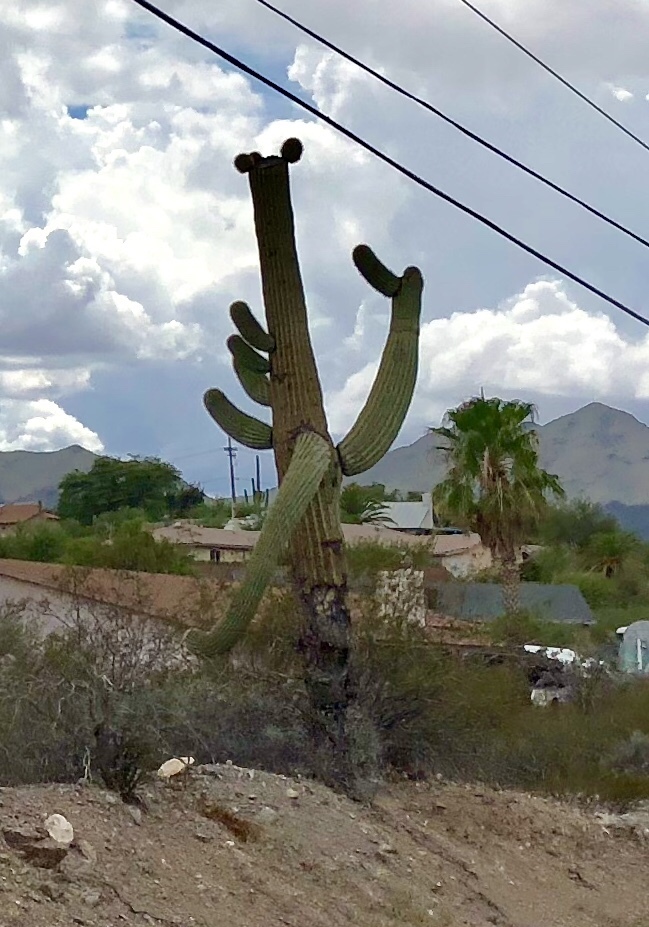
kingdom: Plantae
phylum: Tracheophyta
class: Magnoliopsida
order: Caryophyllales
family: Cactaceae
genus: Carnegiea
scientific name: Carnegiea gigantea
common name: Saguaro
